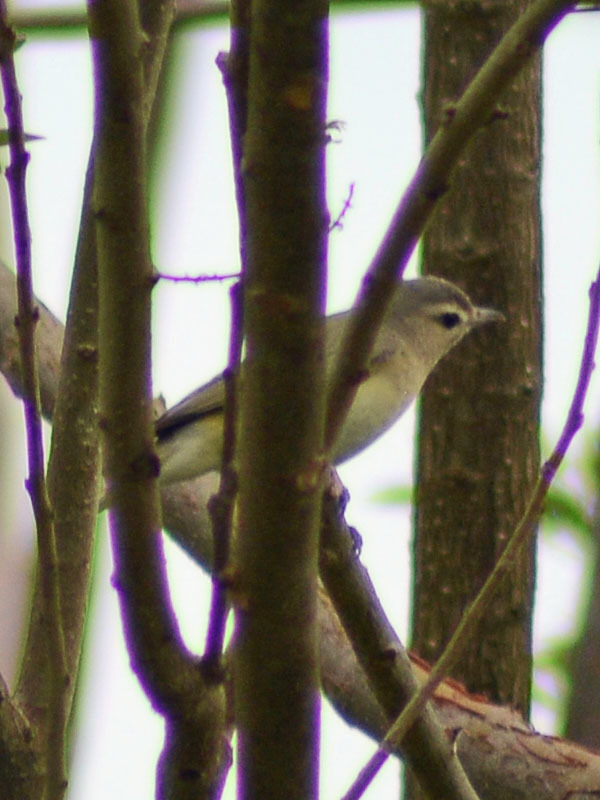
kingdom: Animalia
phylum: Chordata
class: Aves
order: Passeriformes
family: Vireonidae
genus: Vireo
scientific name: Vireo gilvus
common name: Warbling vireo
